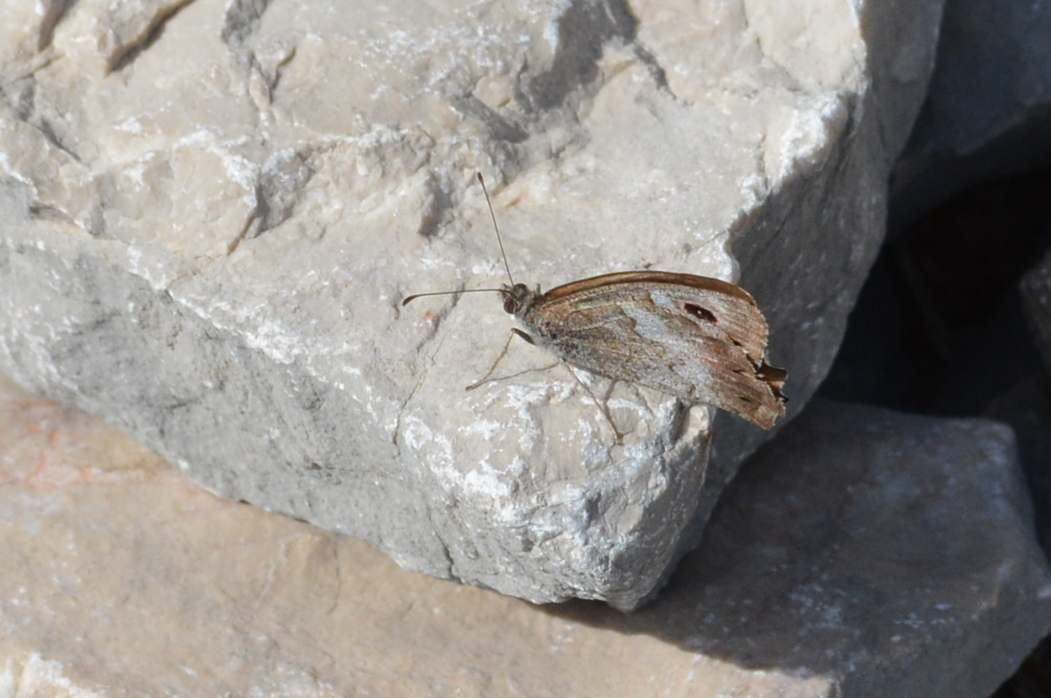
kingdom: Animalia
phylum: Arthropoda
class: Insecta
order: Lepidoptera
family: Nymphalidae
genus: Hipparchia
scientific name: Hipparchia statilinus
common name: Tree grayling
